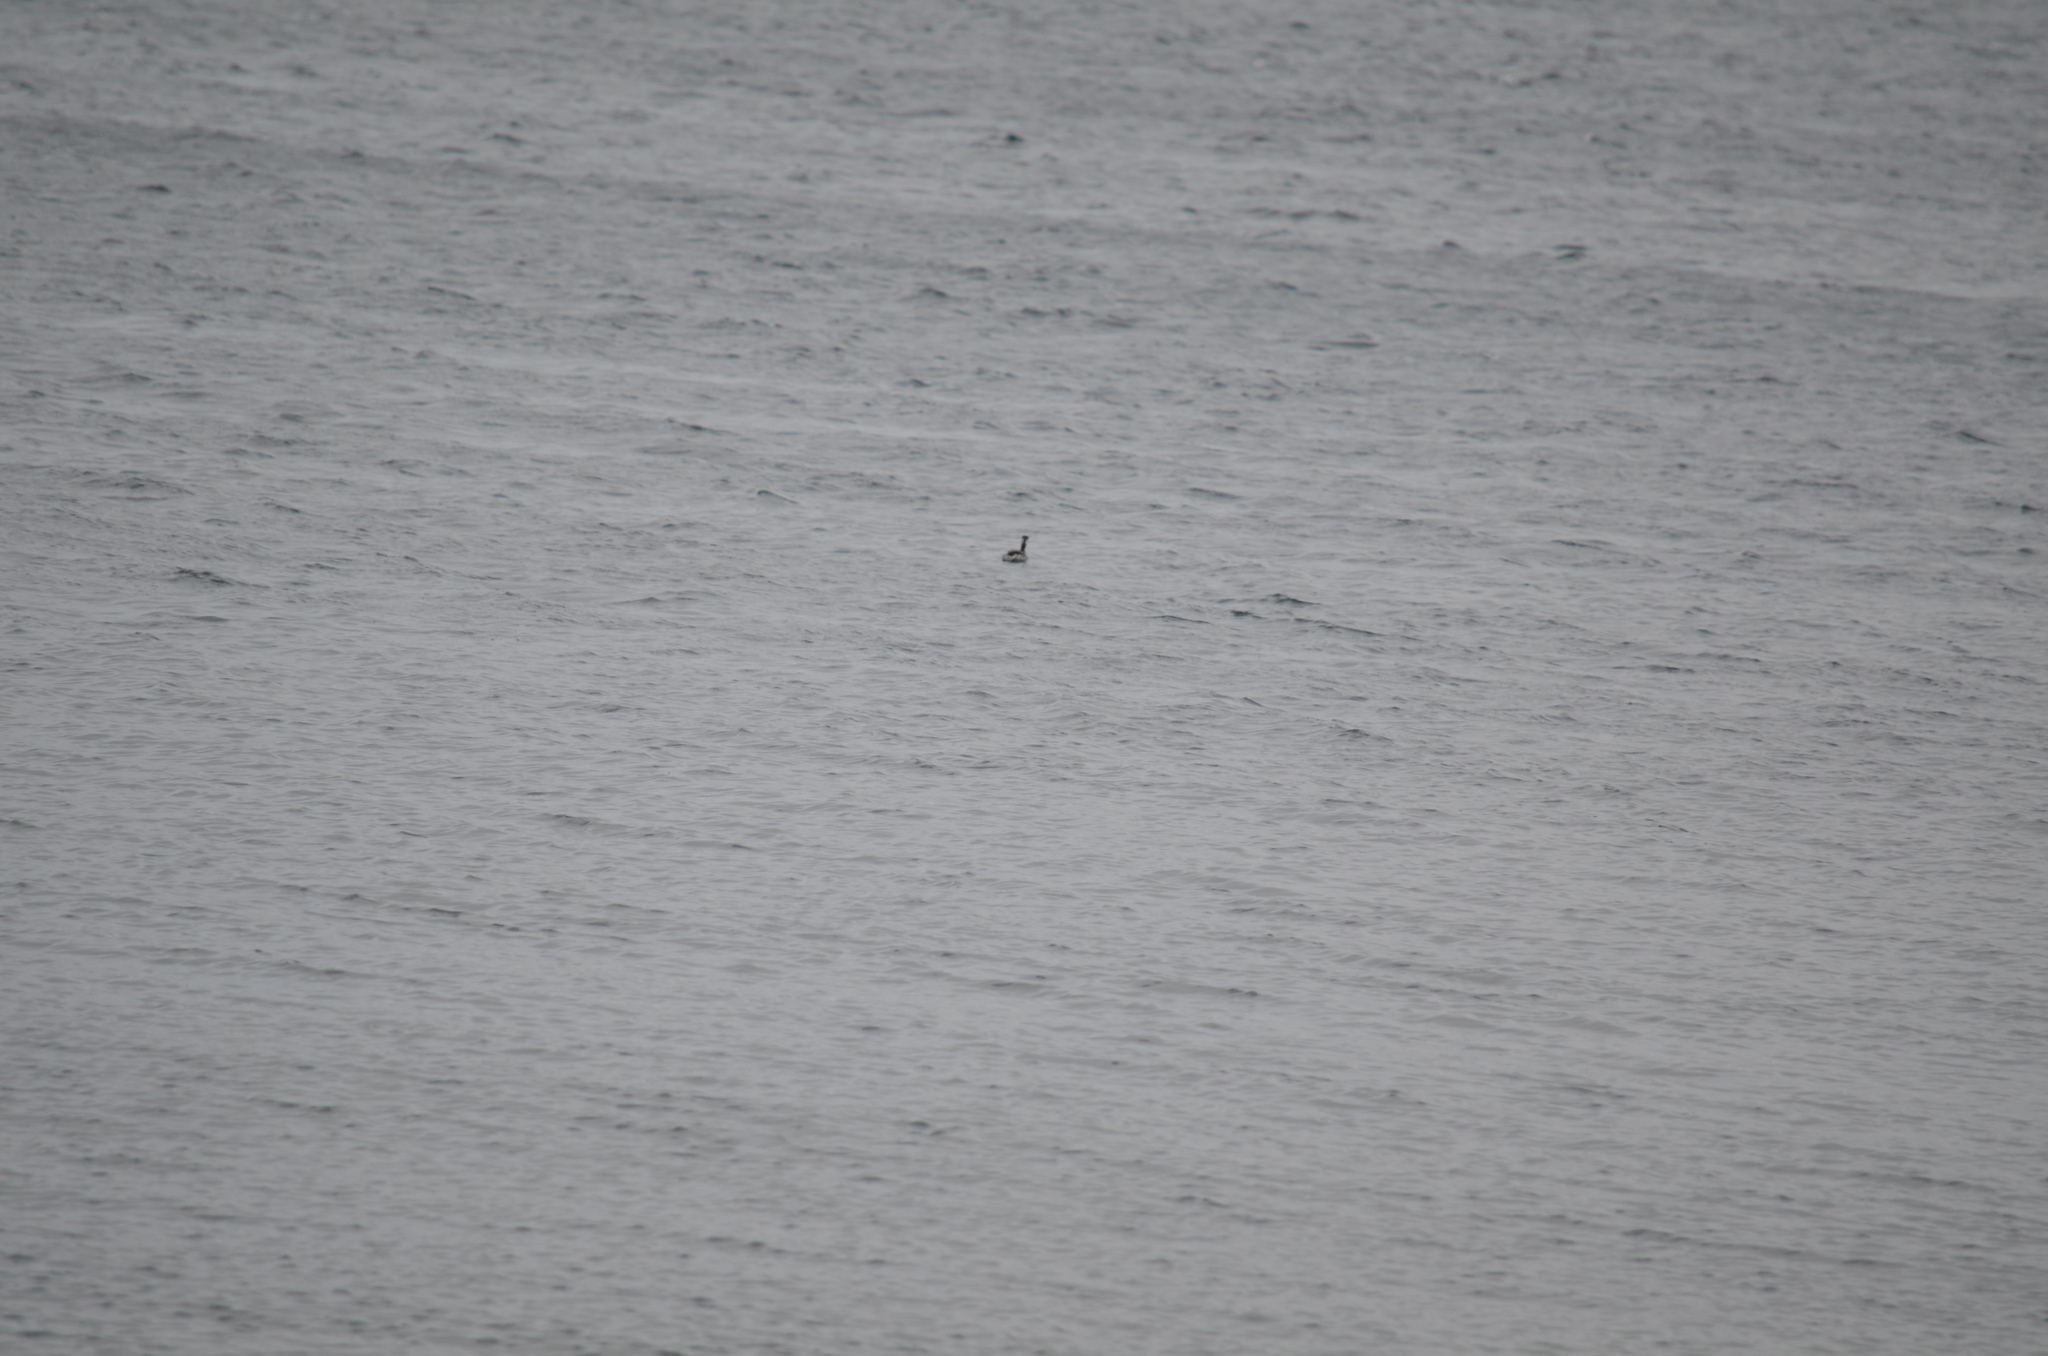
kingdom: Animalia
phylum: Chordata
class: Aves
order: Podicipediformes
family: Podicipedidae
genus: Podiceps
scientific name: Podiceps auritus
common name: Horned grebe
